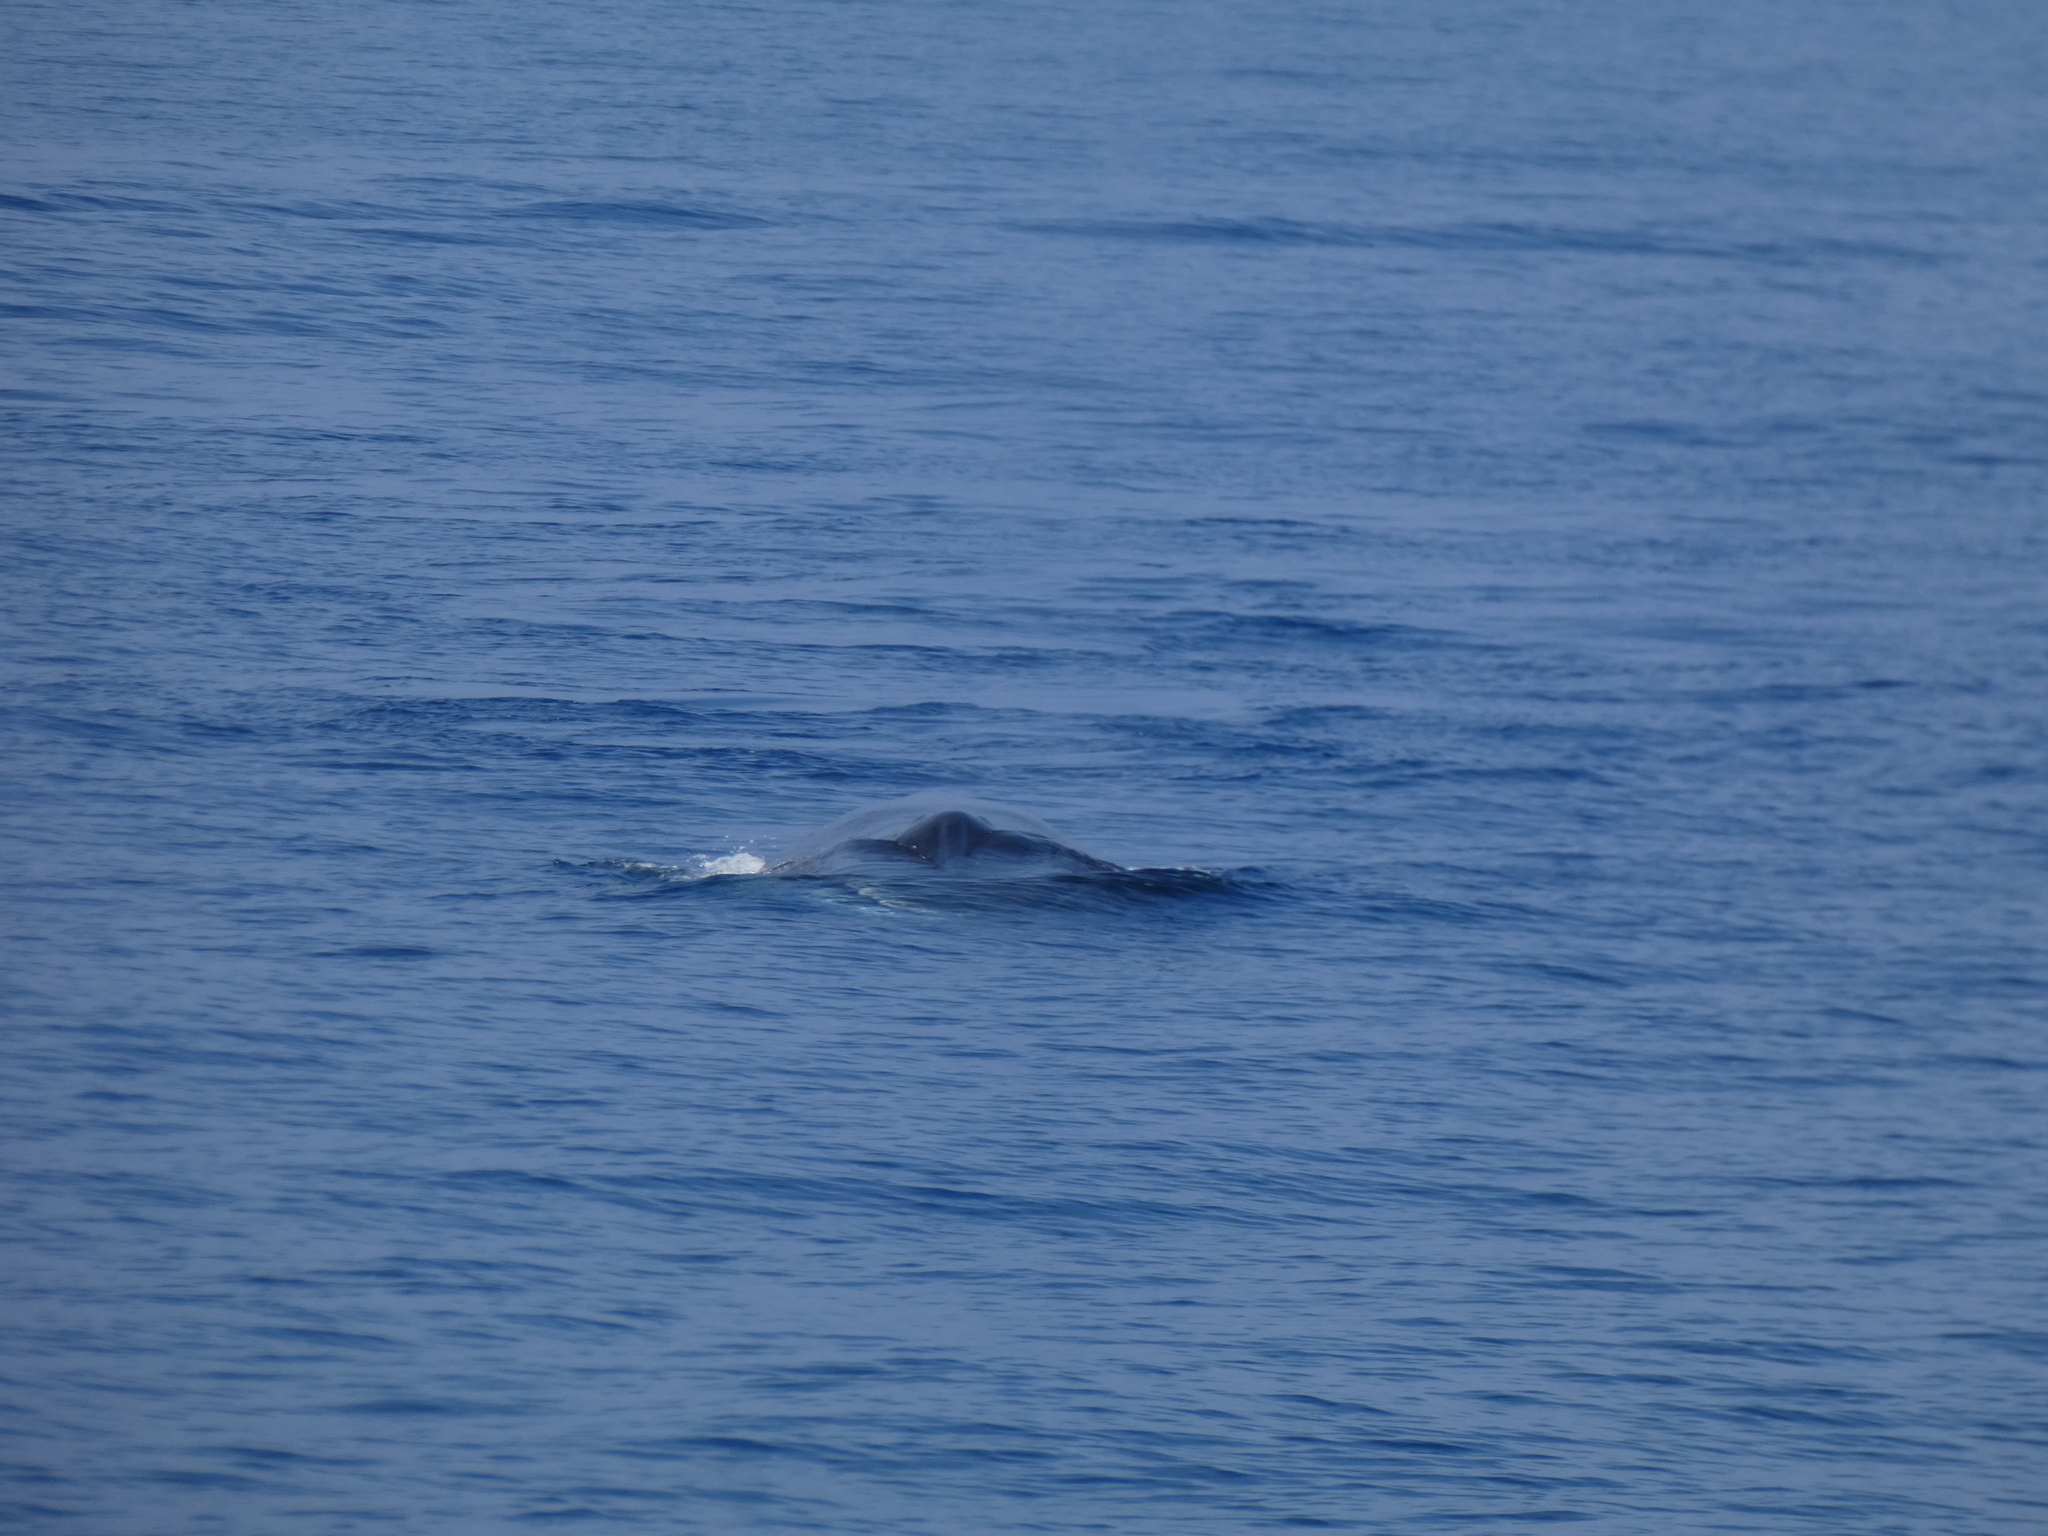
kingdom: Animalia
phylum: Chordata
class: Mammalia
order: Cetacea
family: Balaenopteridae
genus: Balaenoptera
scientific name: Balaenoptera physalus
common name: Fin whale
